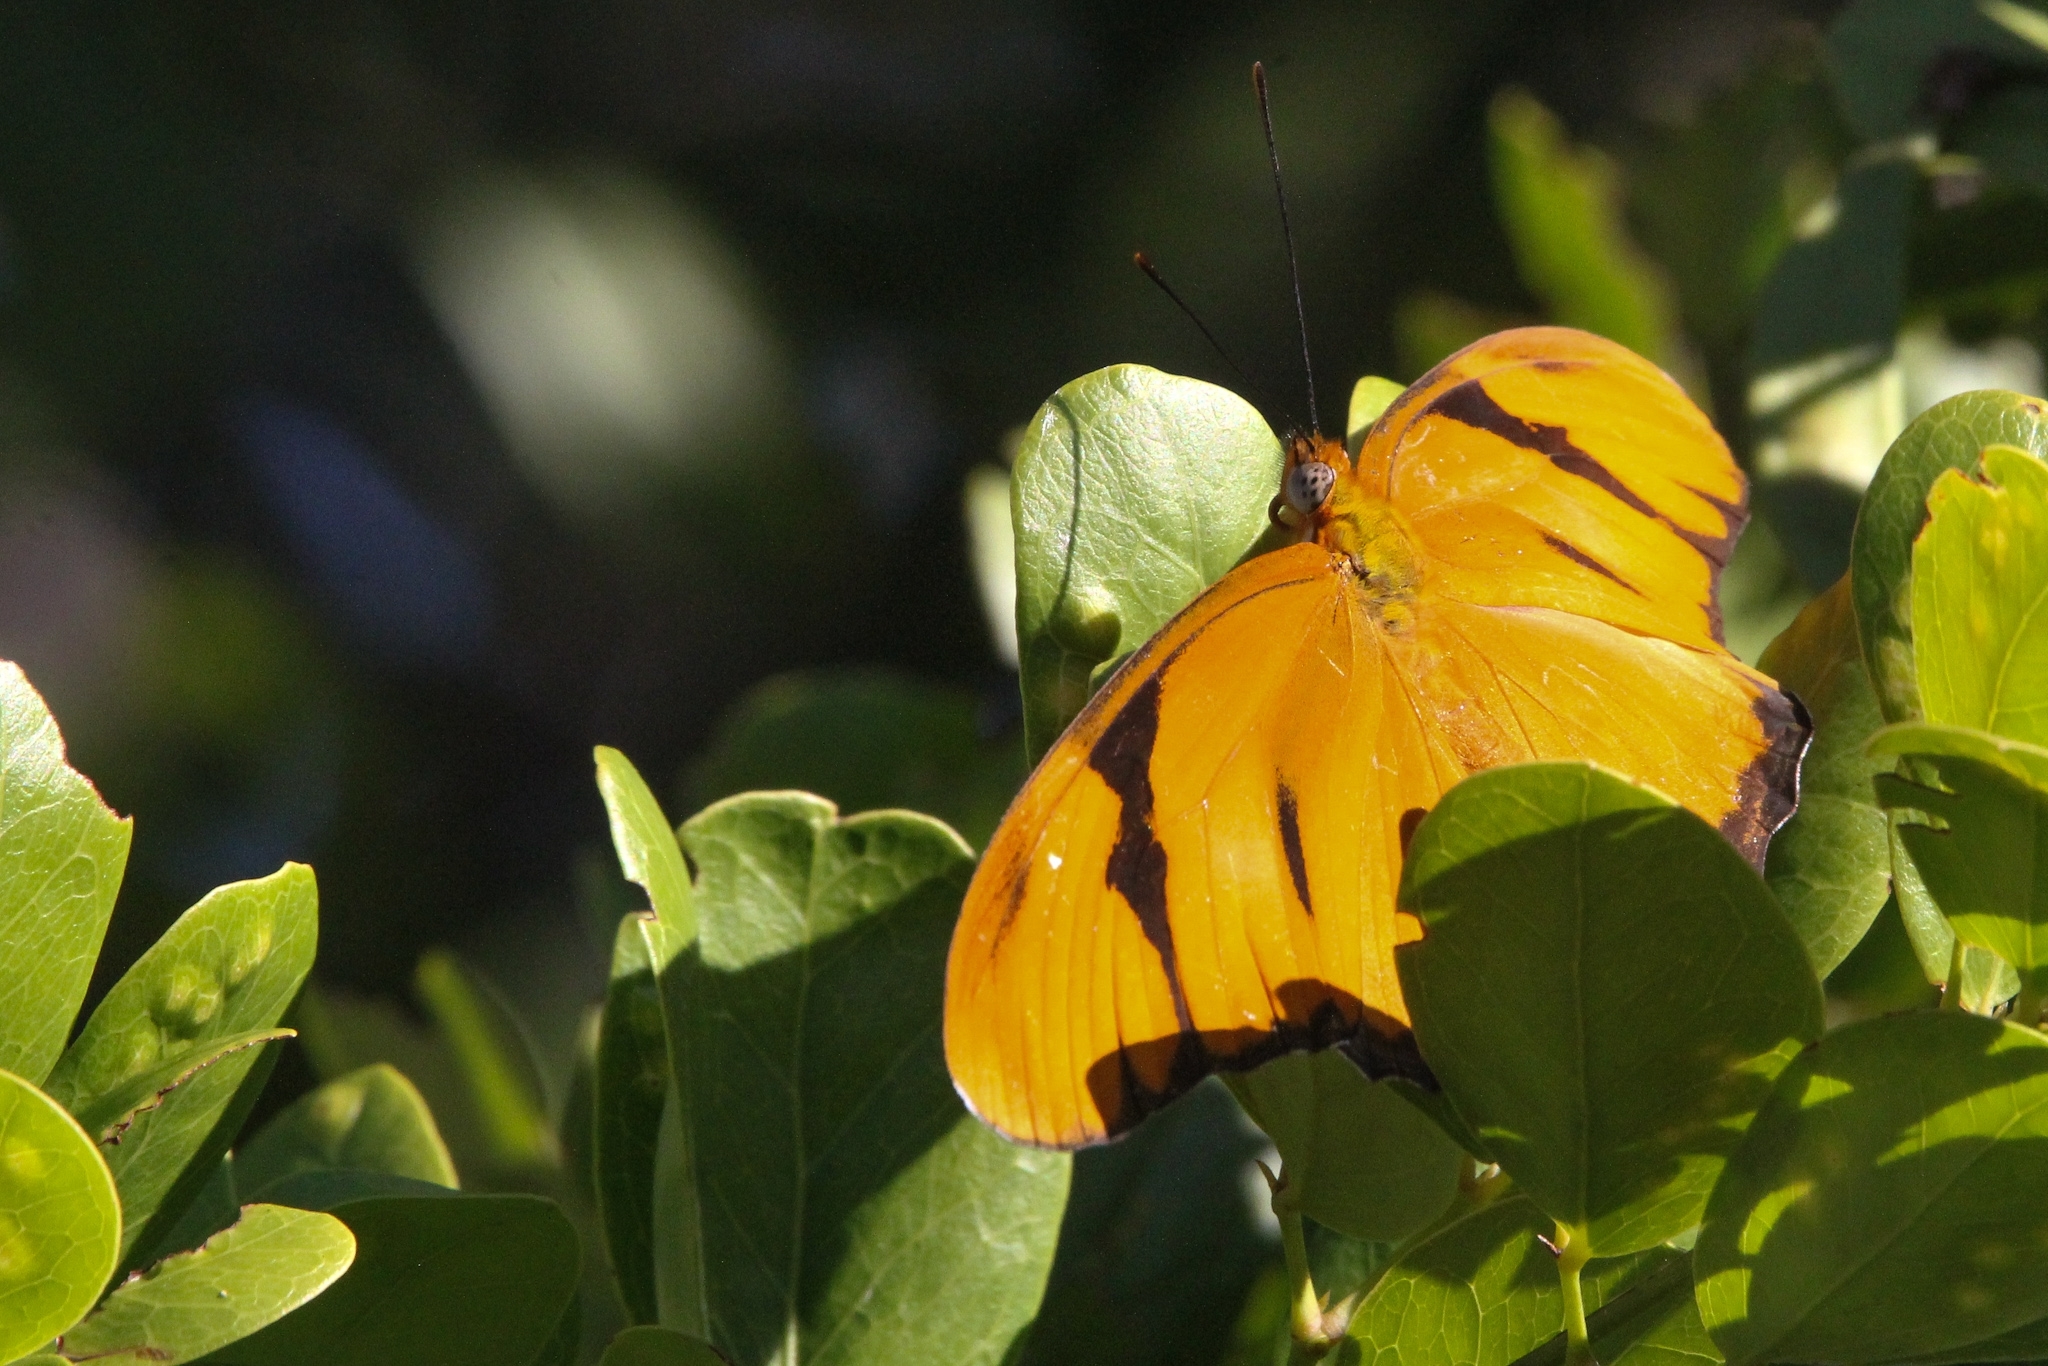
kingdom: Animalia
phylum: Arthropoda
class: Insecta
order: Lepidoptera
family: Nymphalidae
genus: Dryas
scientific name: Dryas iulia
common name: Flambeau
